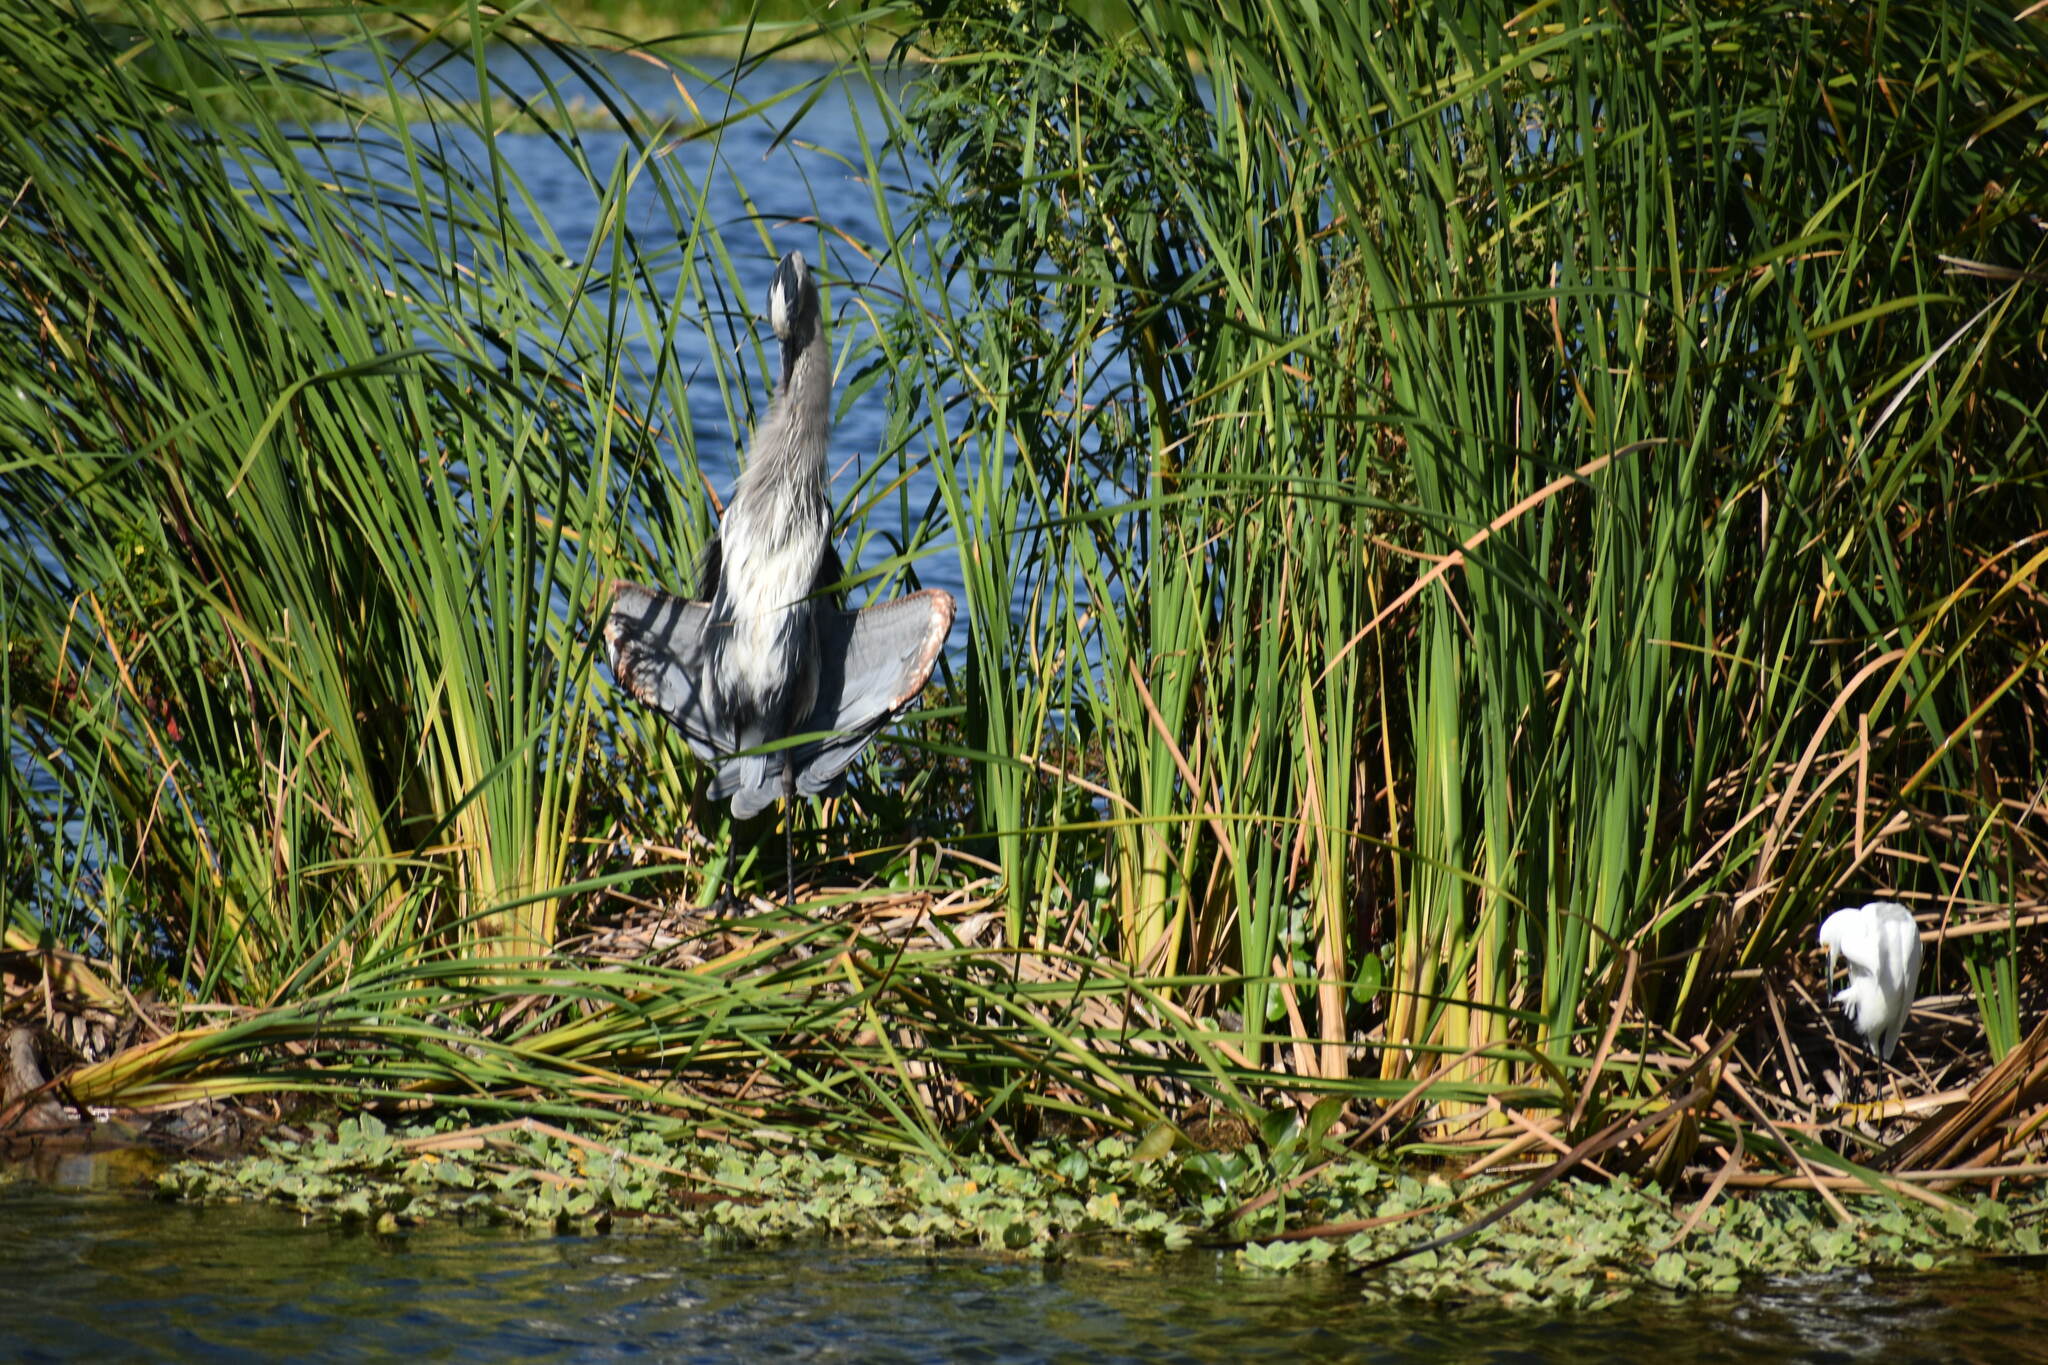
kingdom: Animalia
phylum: Chordata
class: Aves
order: Pelecaniformes
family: Ardeidae
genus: Ardea
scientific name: Ardea herodias
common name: Great blue heron
